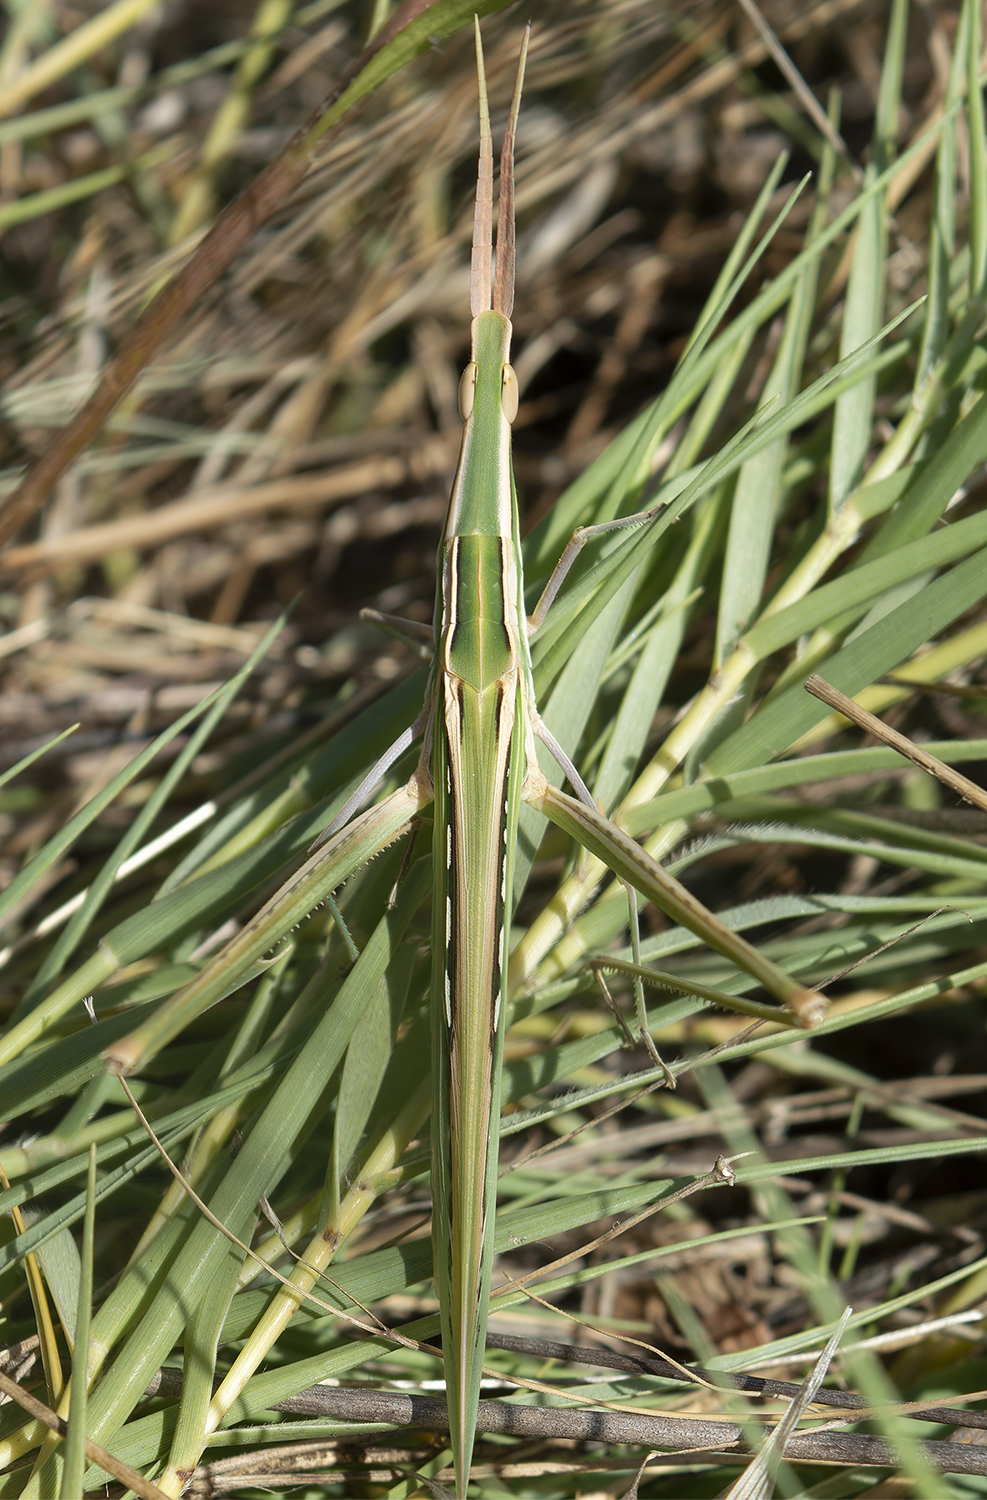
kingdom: Animalia
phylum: Arthropoda
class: Insecta
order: Orthoptera
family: Acrididae
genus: Acrida
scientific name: Acrida ungarica
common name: Common cone-headed grasshopper
